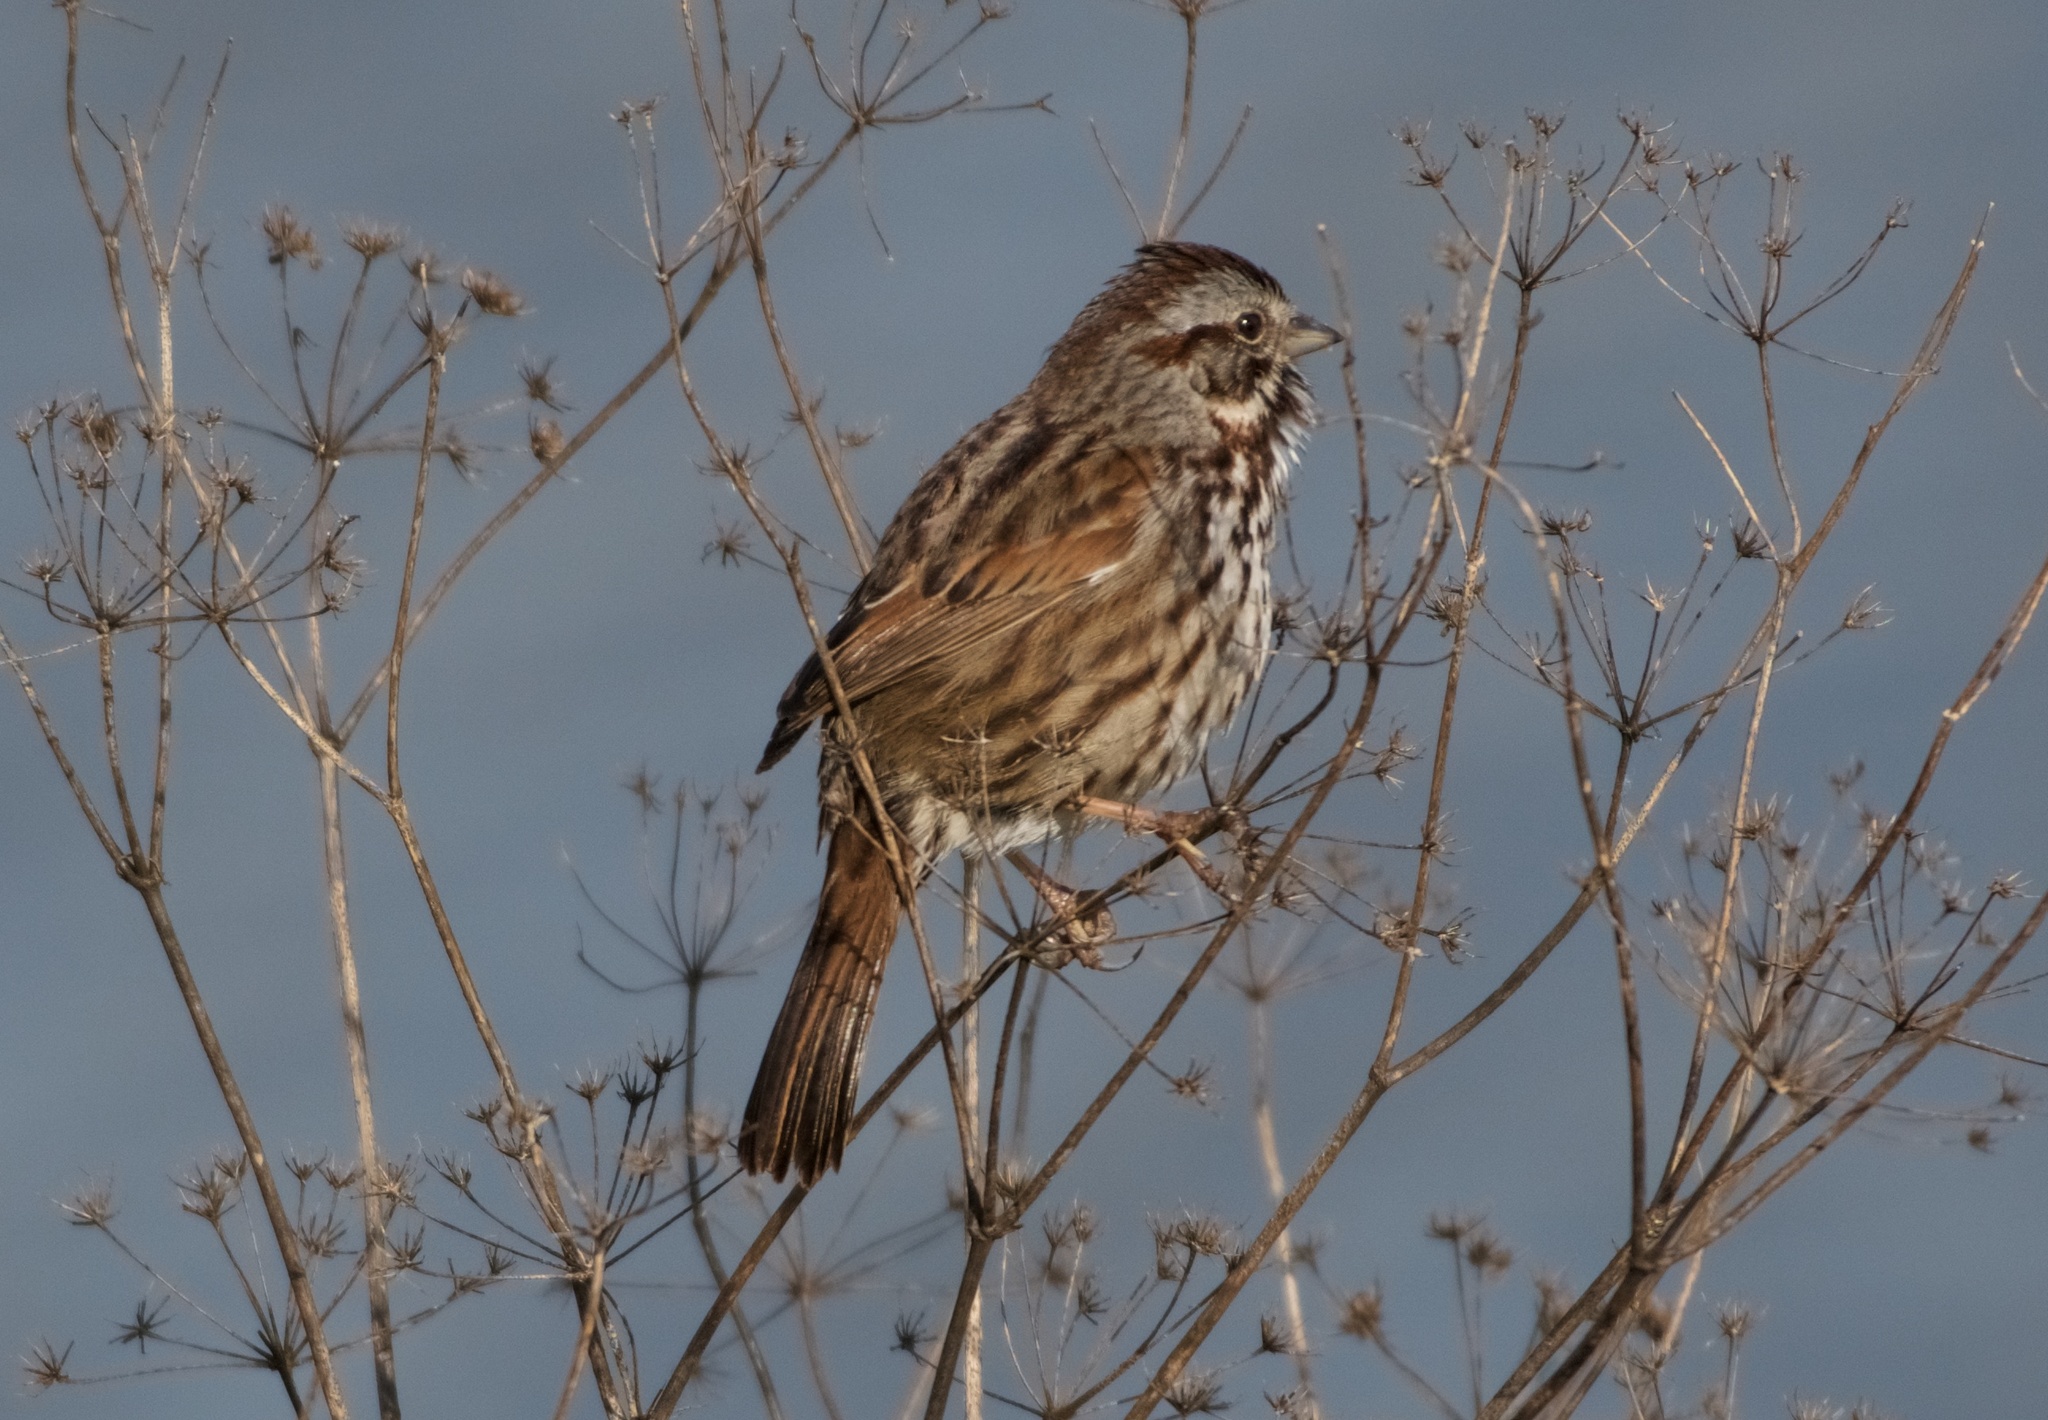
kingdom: Animalia
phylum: Chordata
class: Aves
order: Passeriformes
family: Passerellidae
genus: Melospiza
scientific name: Melospiza melodia
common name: Song sparrow
